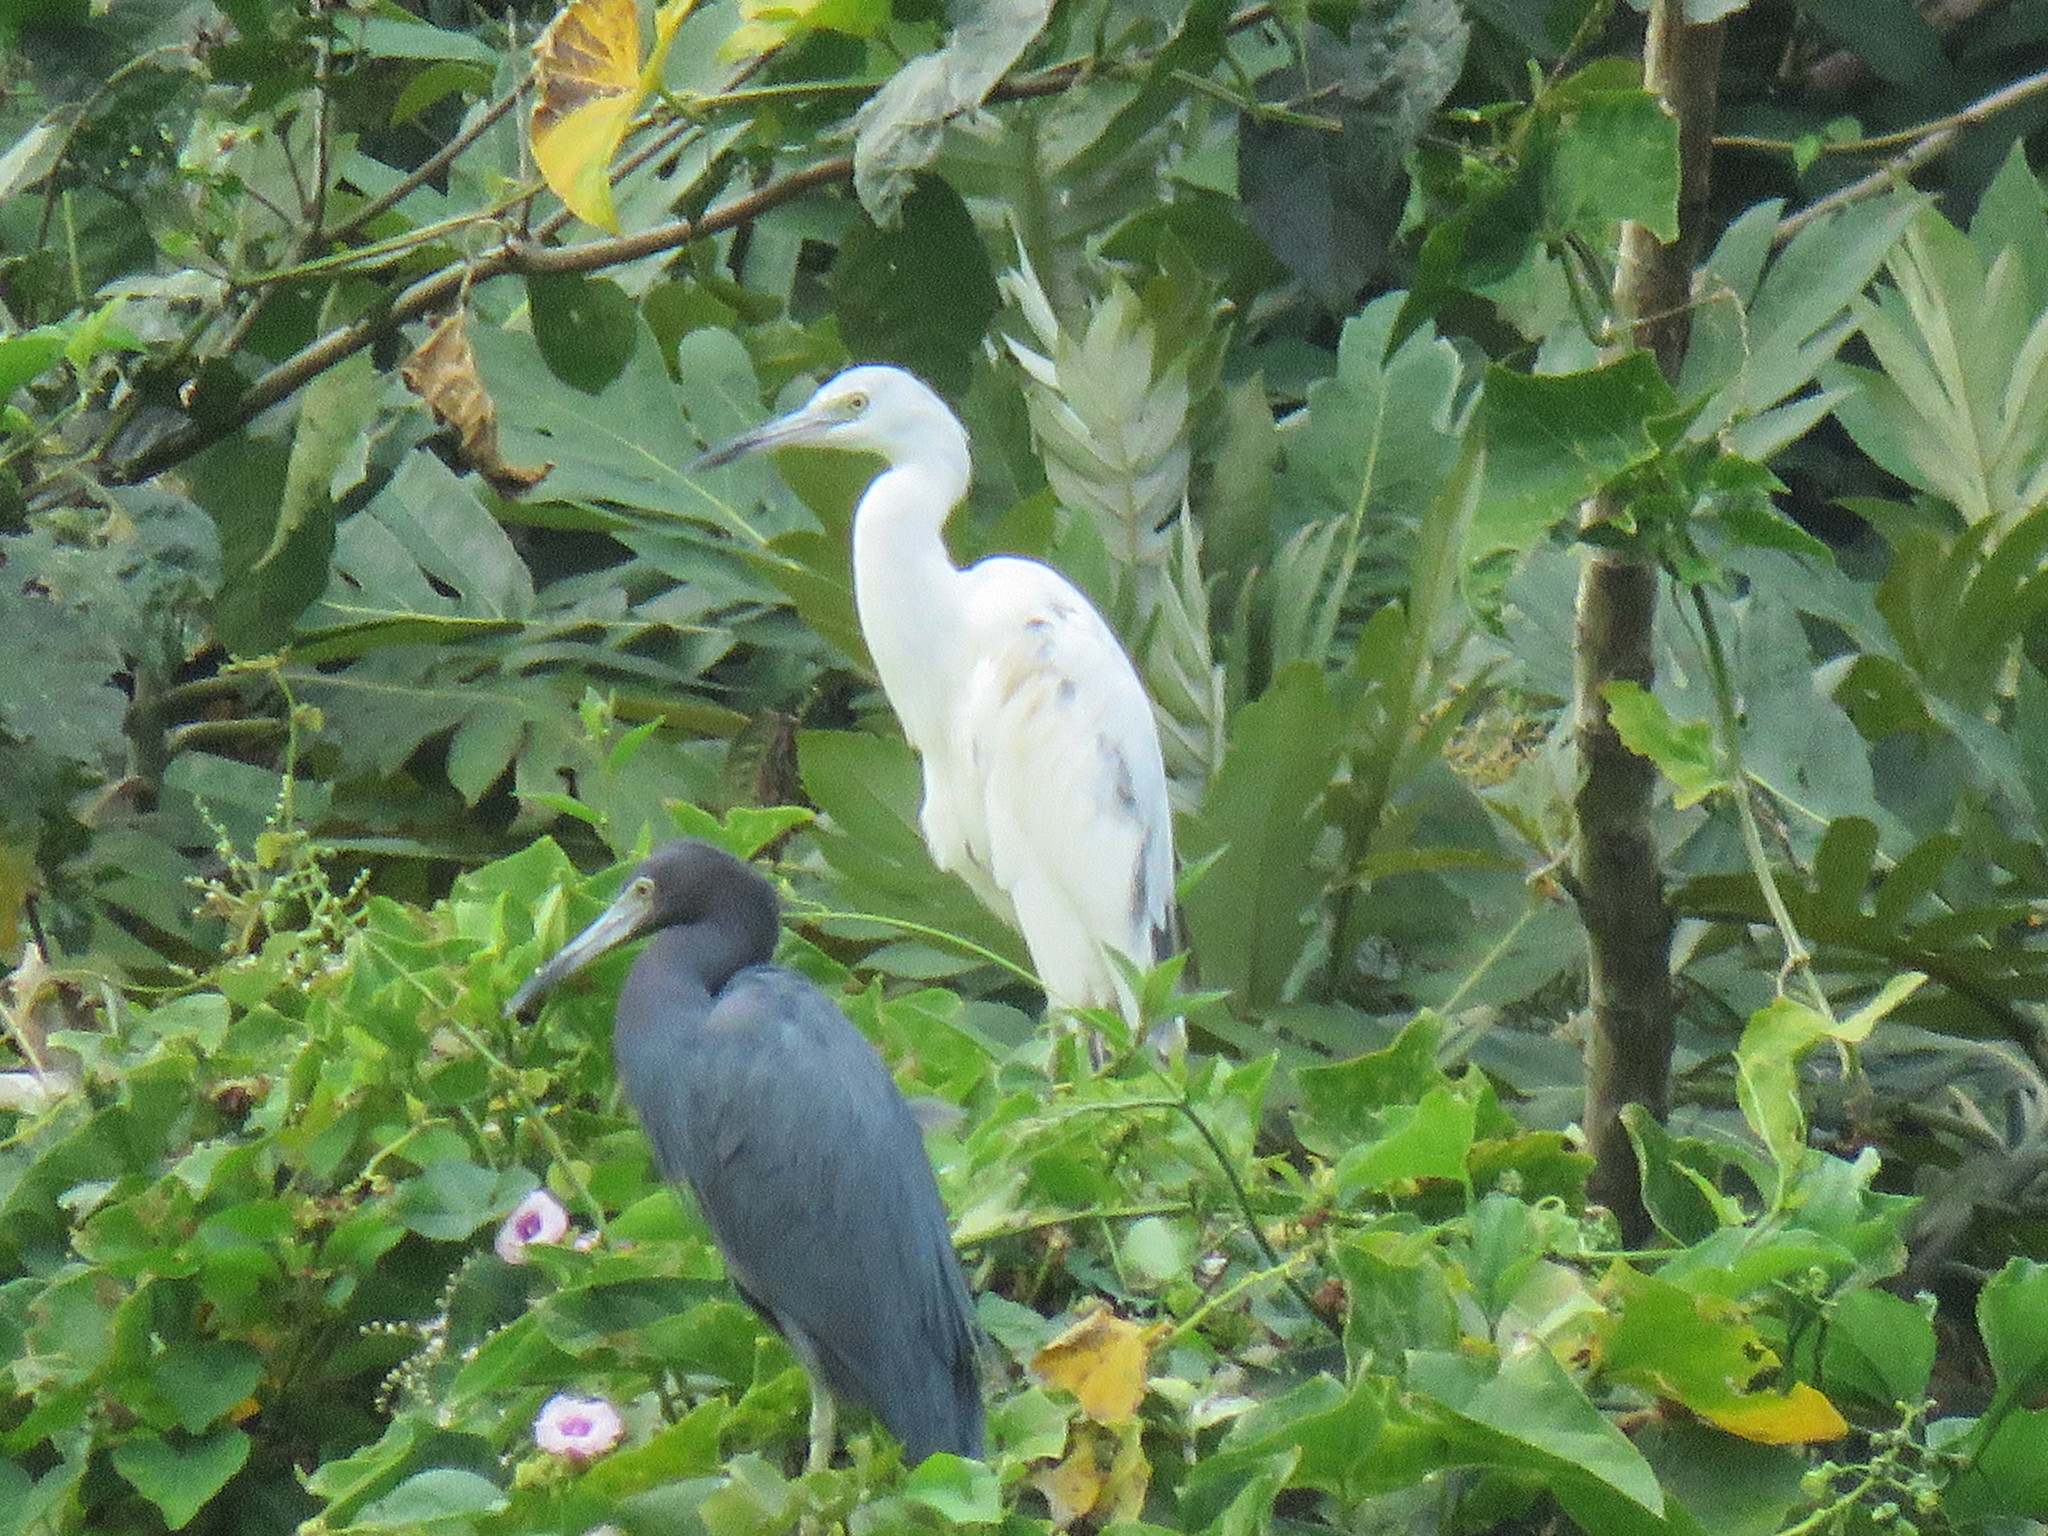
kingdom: Animalia
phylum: Chordata
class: Aves
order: Pelecaniformes
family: Ardeidae
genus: Egretta
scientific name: Egretta caerulea
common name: Little blue heron
